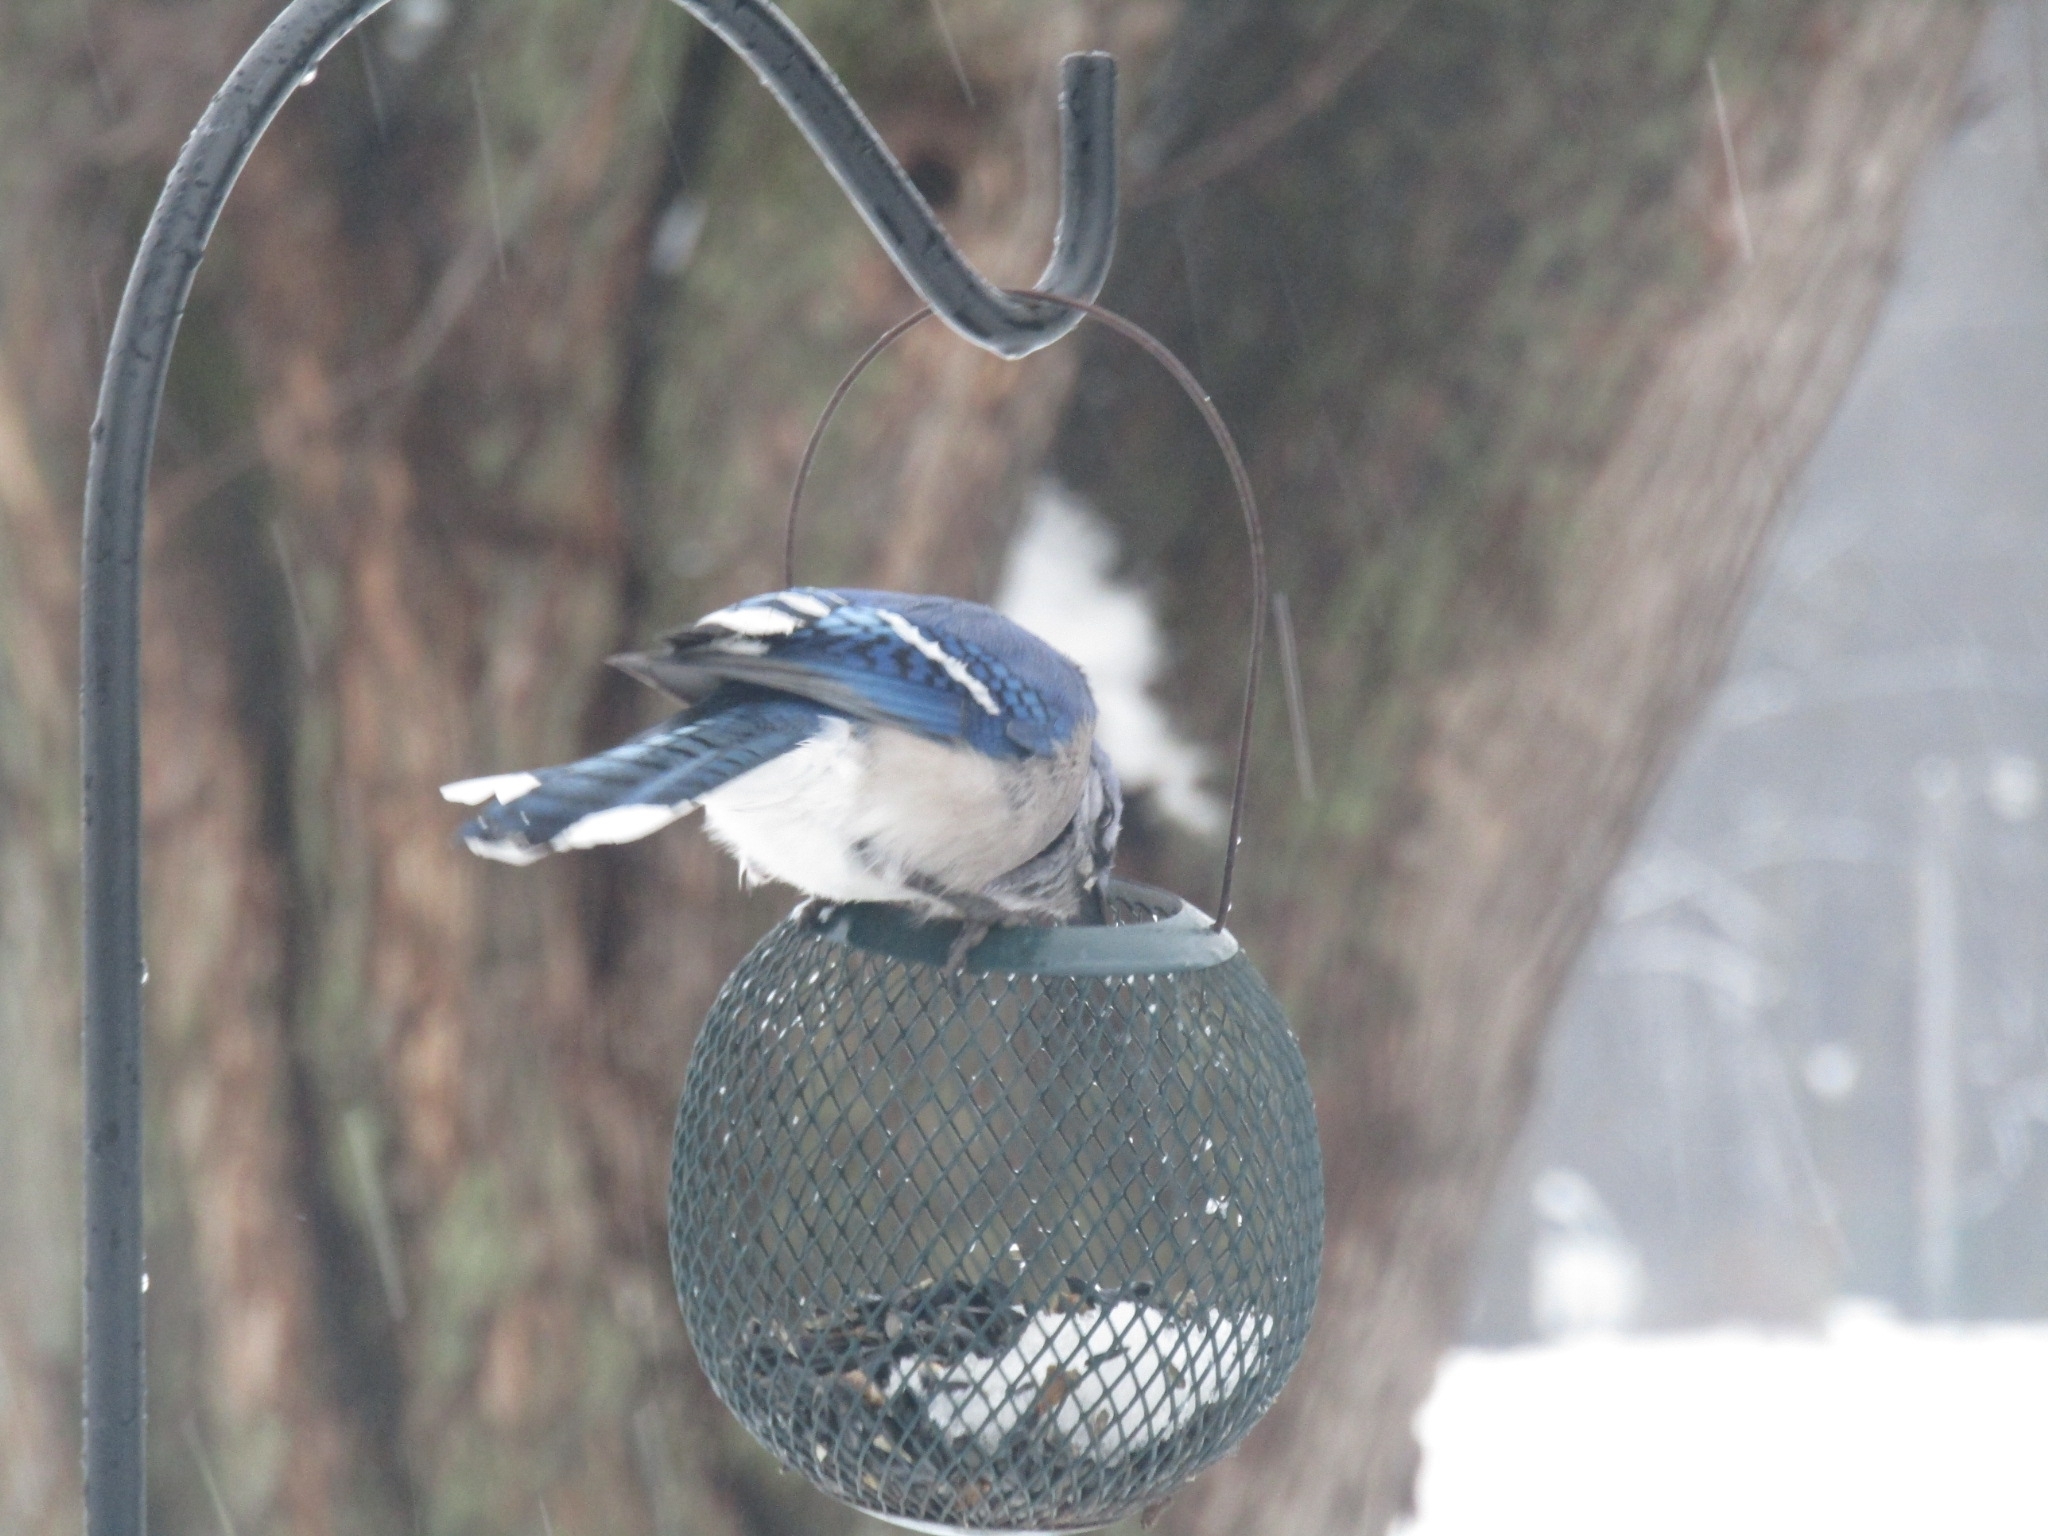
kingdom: Animalia
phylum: Chordata
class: Aves
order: Passeriformes
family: Corvidae
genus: Cyanocitta
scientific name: Cyanocitta cristata
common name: Blue jay
